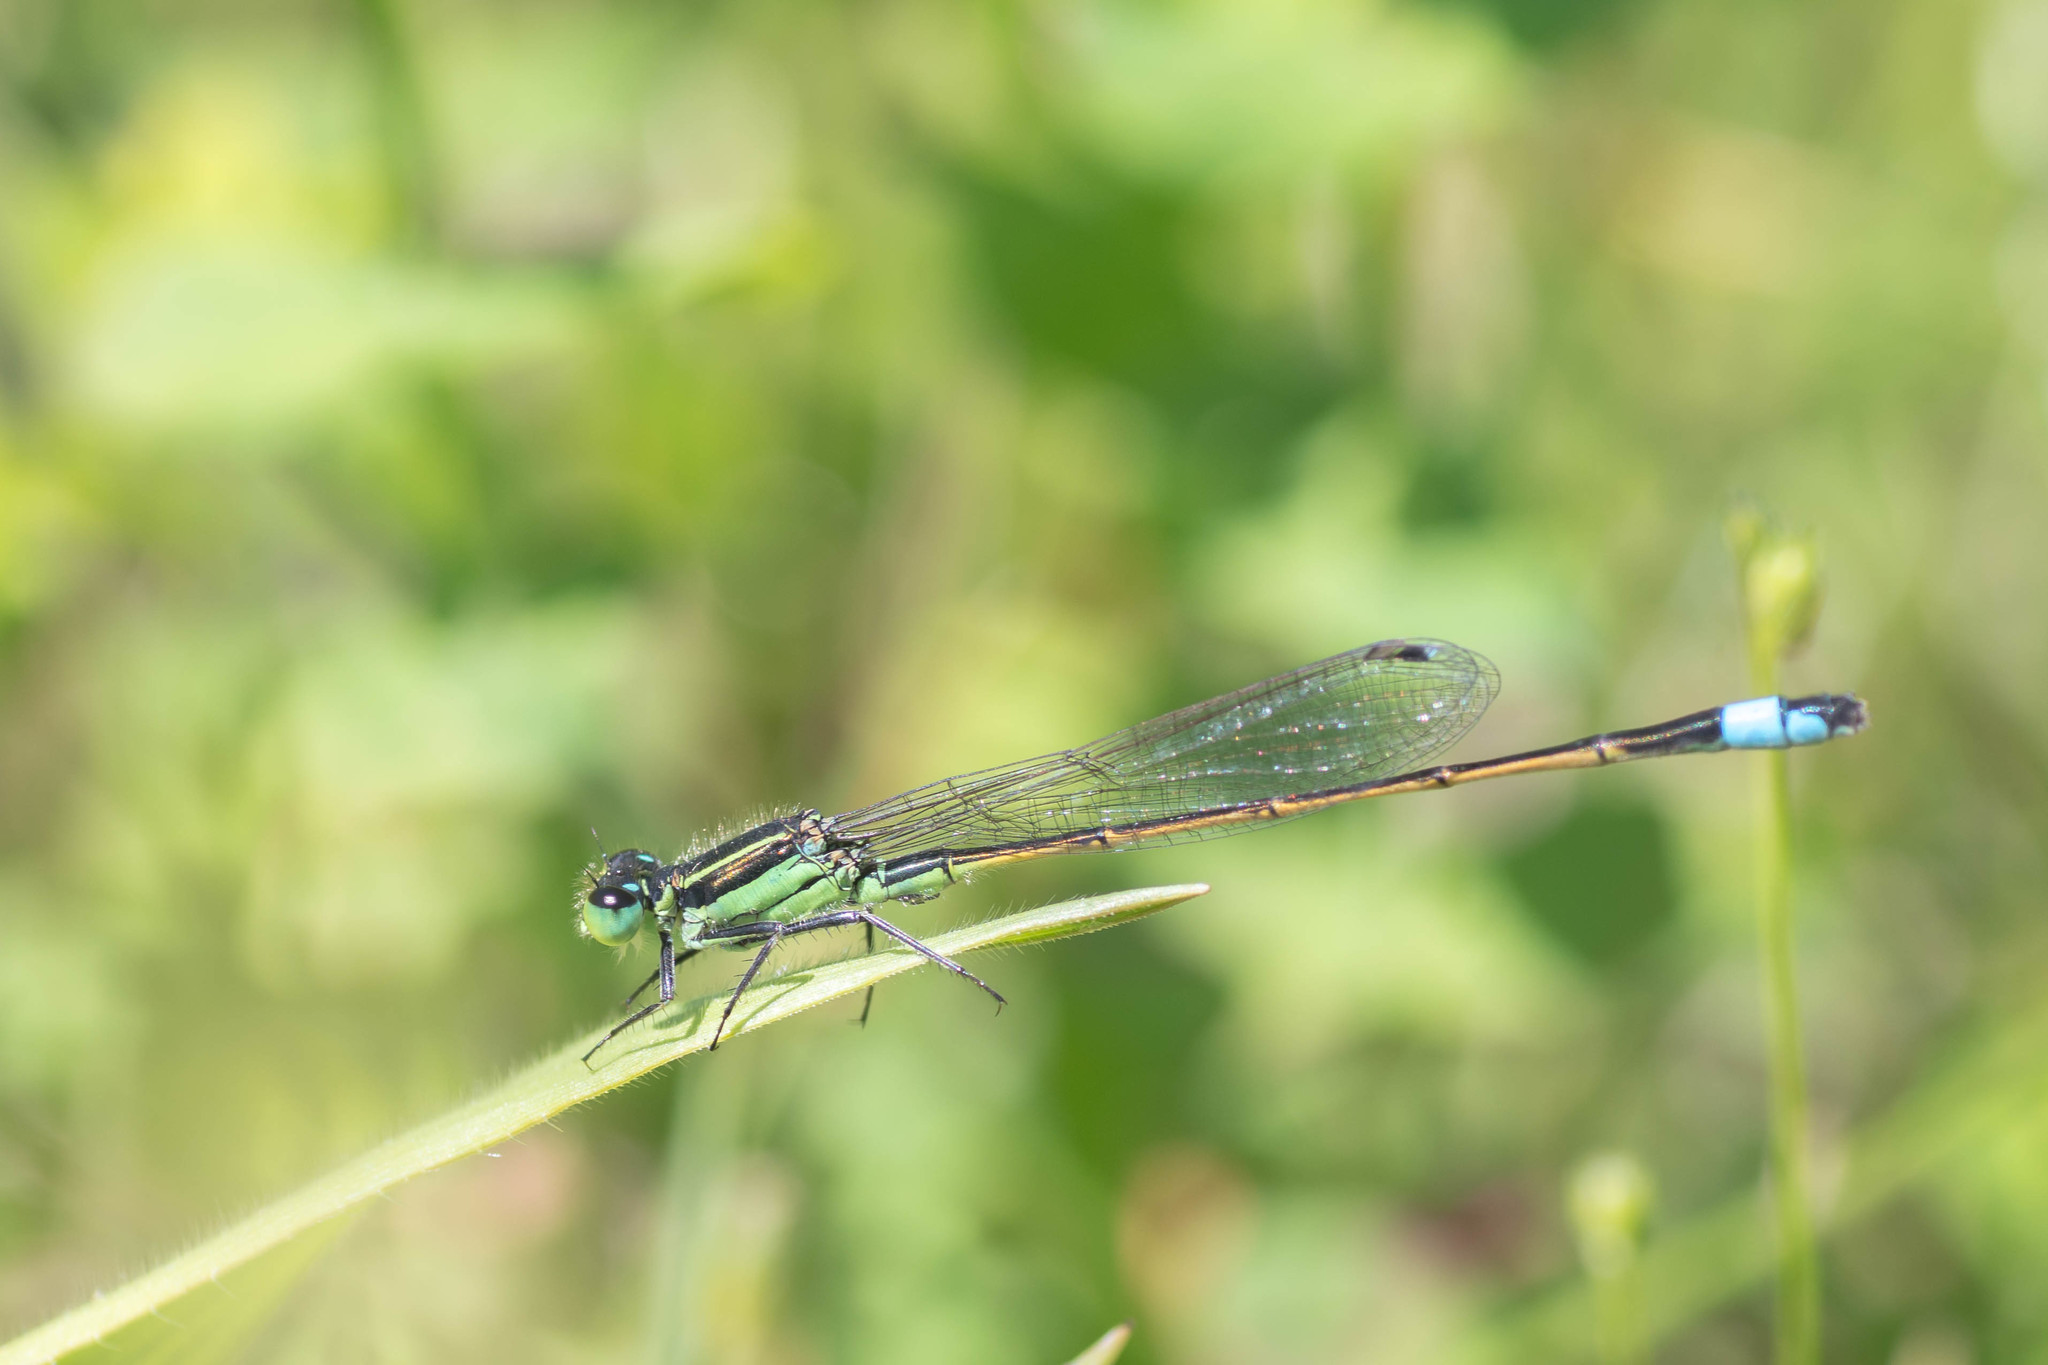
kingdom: Animalia
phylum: Arthropoda
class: Insecta
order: Odonata
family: Coenagrionidae
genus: Ischnura
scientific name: Ischnura ramburii
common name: Rambur's forktail
